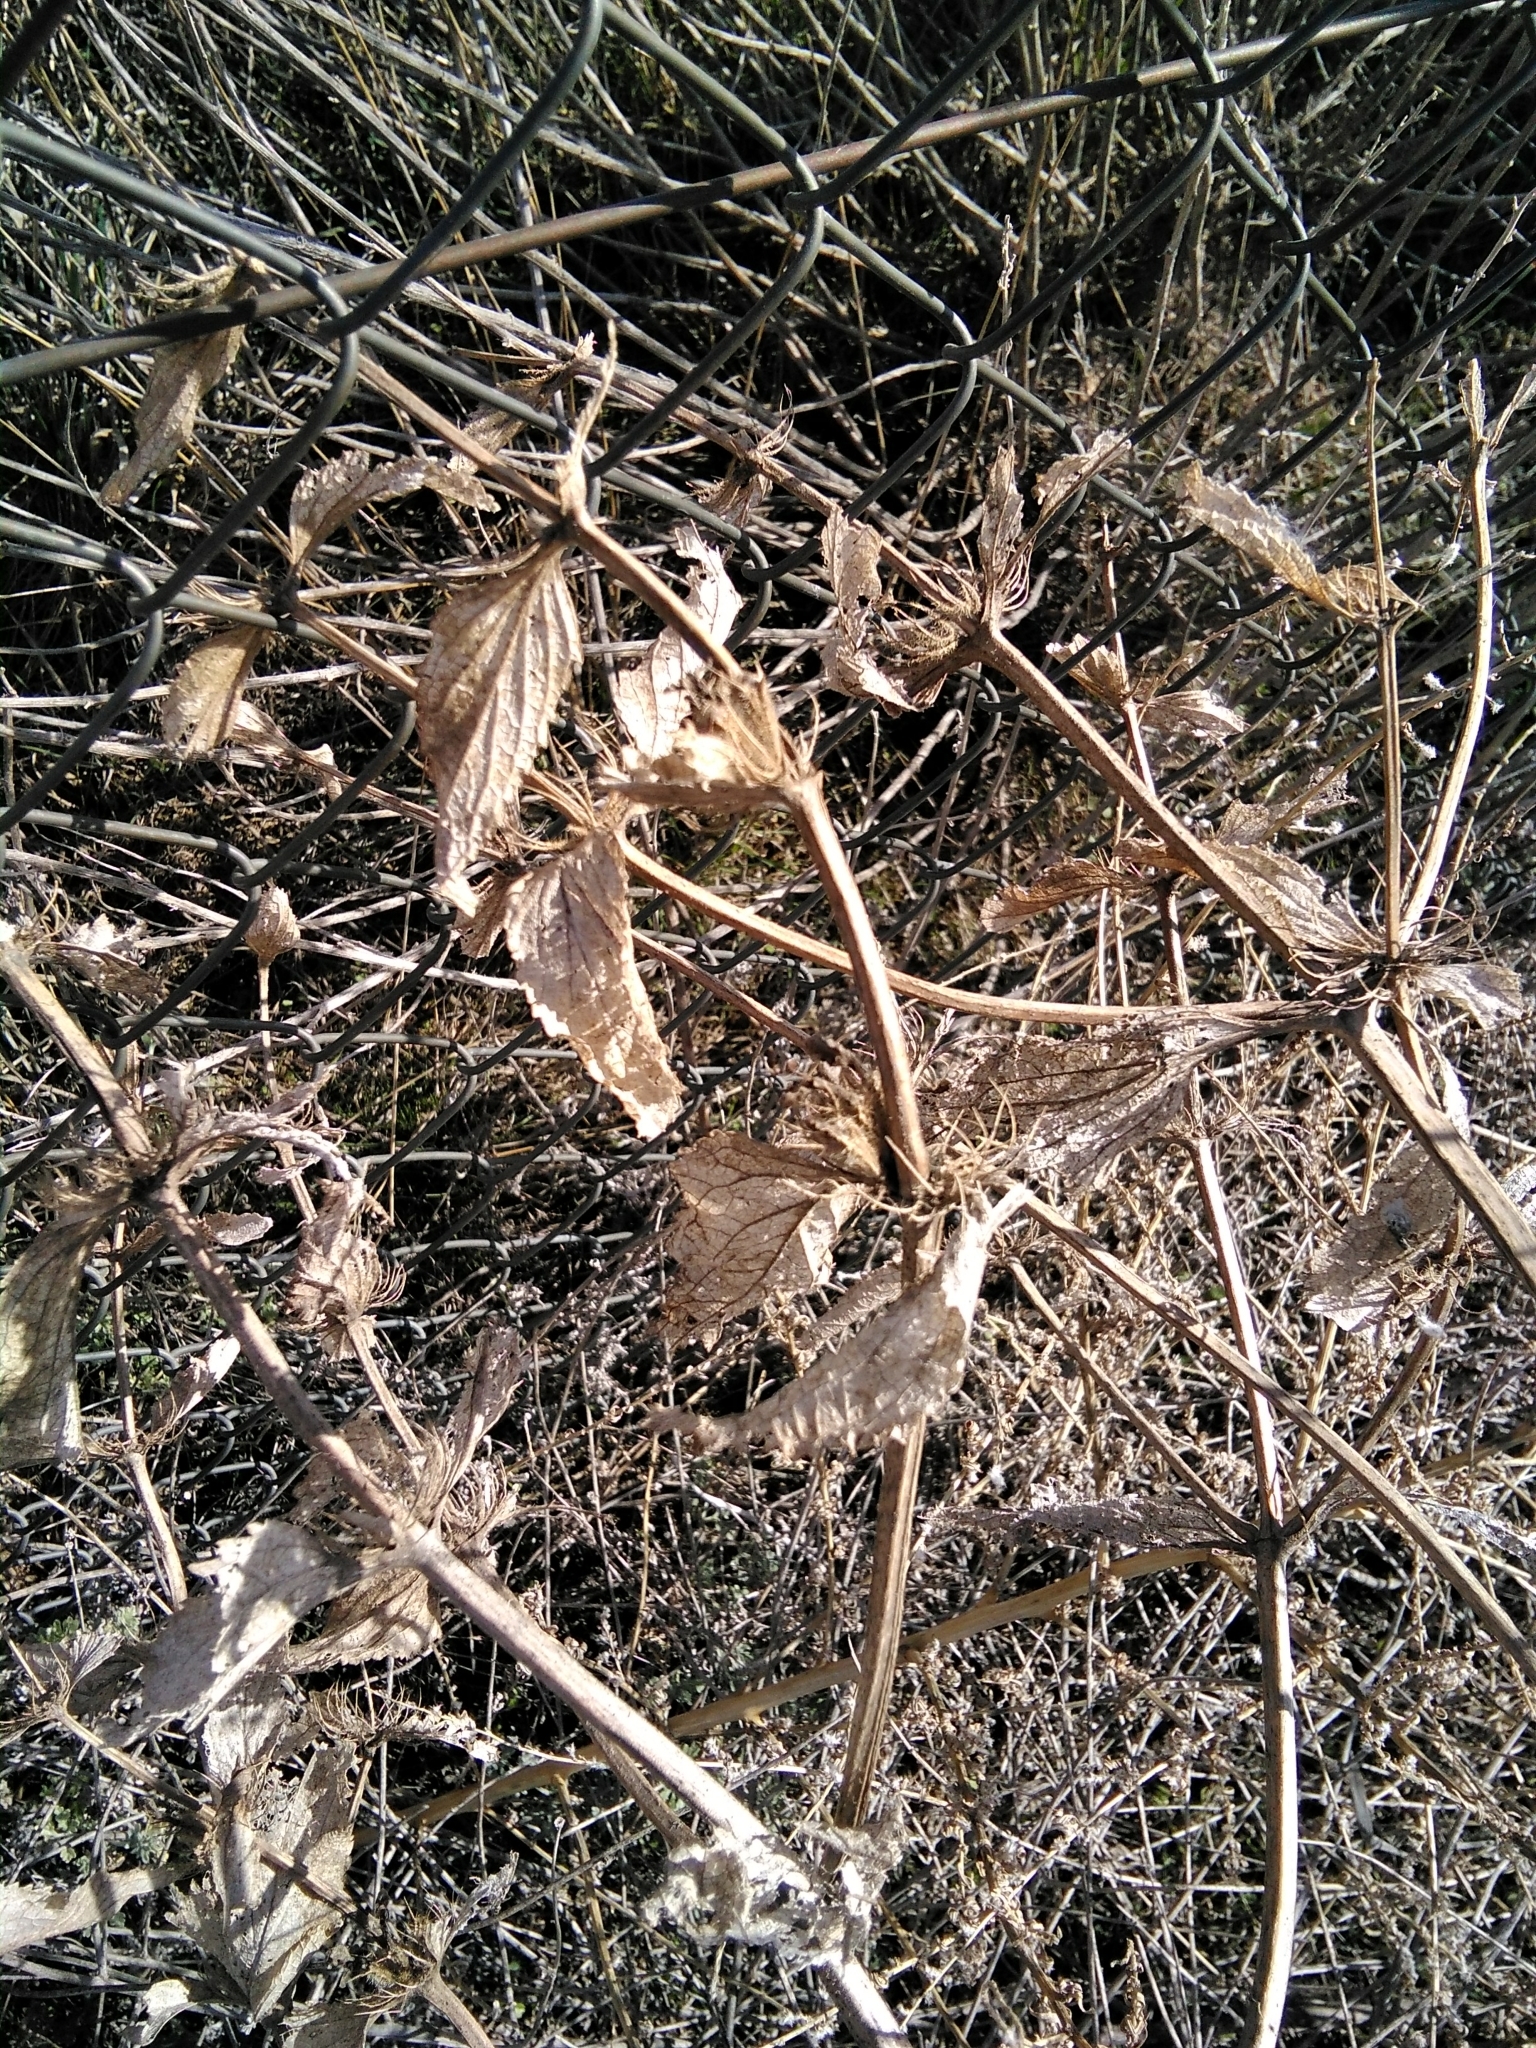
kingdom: Plantae
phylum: Tracheophyta
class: Magnoliopsida
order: Lamiales
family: Lamiaceae
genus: Phlomis
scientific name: Phlomis herba-venti
